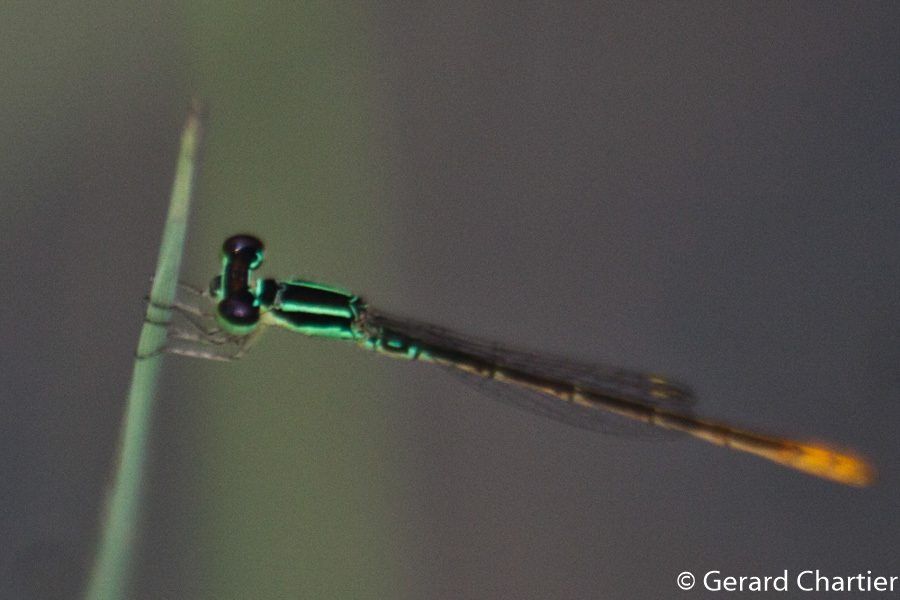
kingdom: Animalia
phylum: Arthropoda
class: Insecta
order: Odonata
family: Coenagrionidae
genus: Agriocnemis
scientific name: Agriocnemis minima
